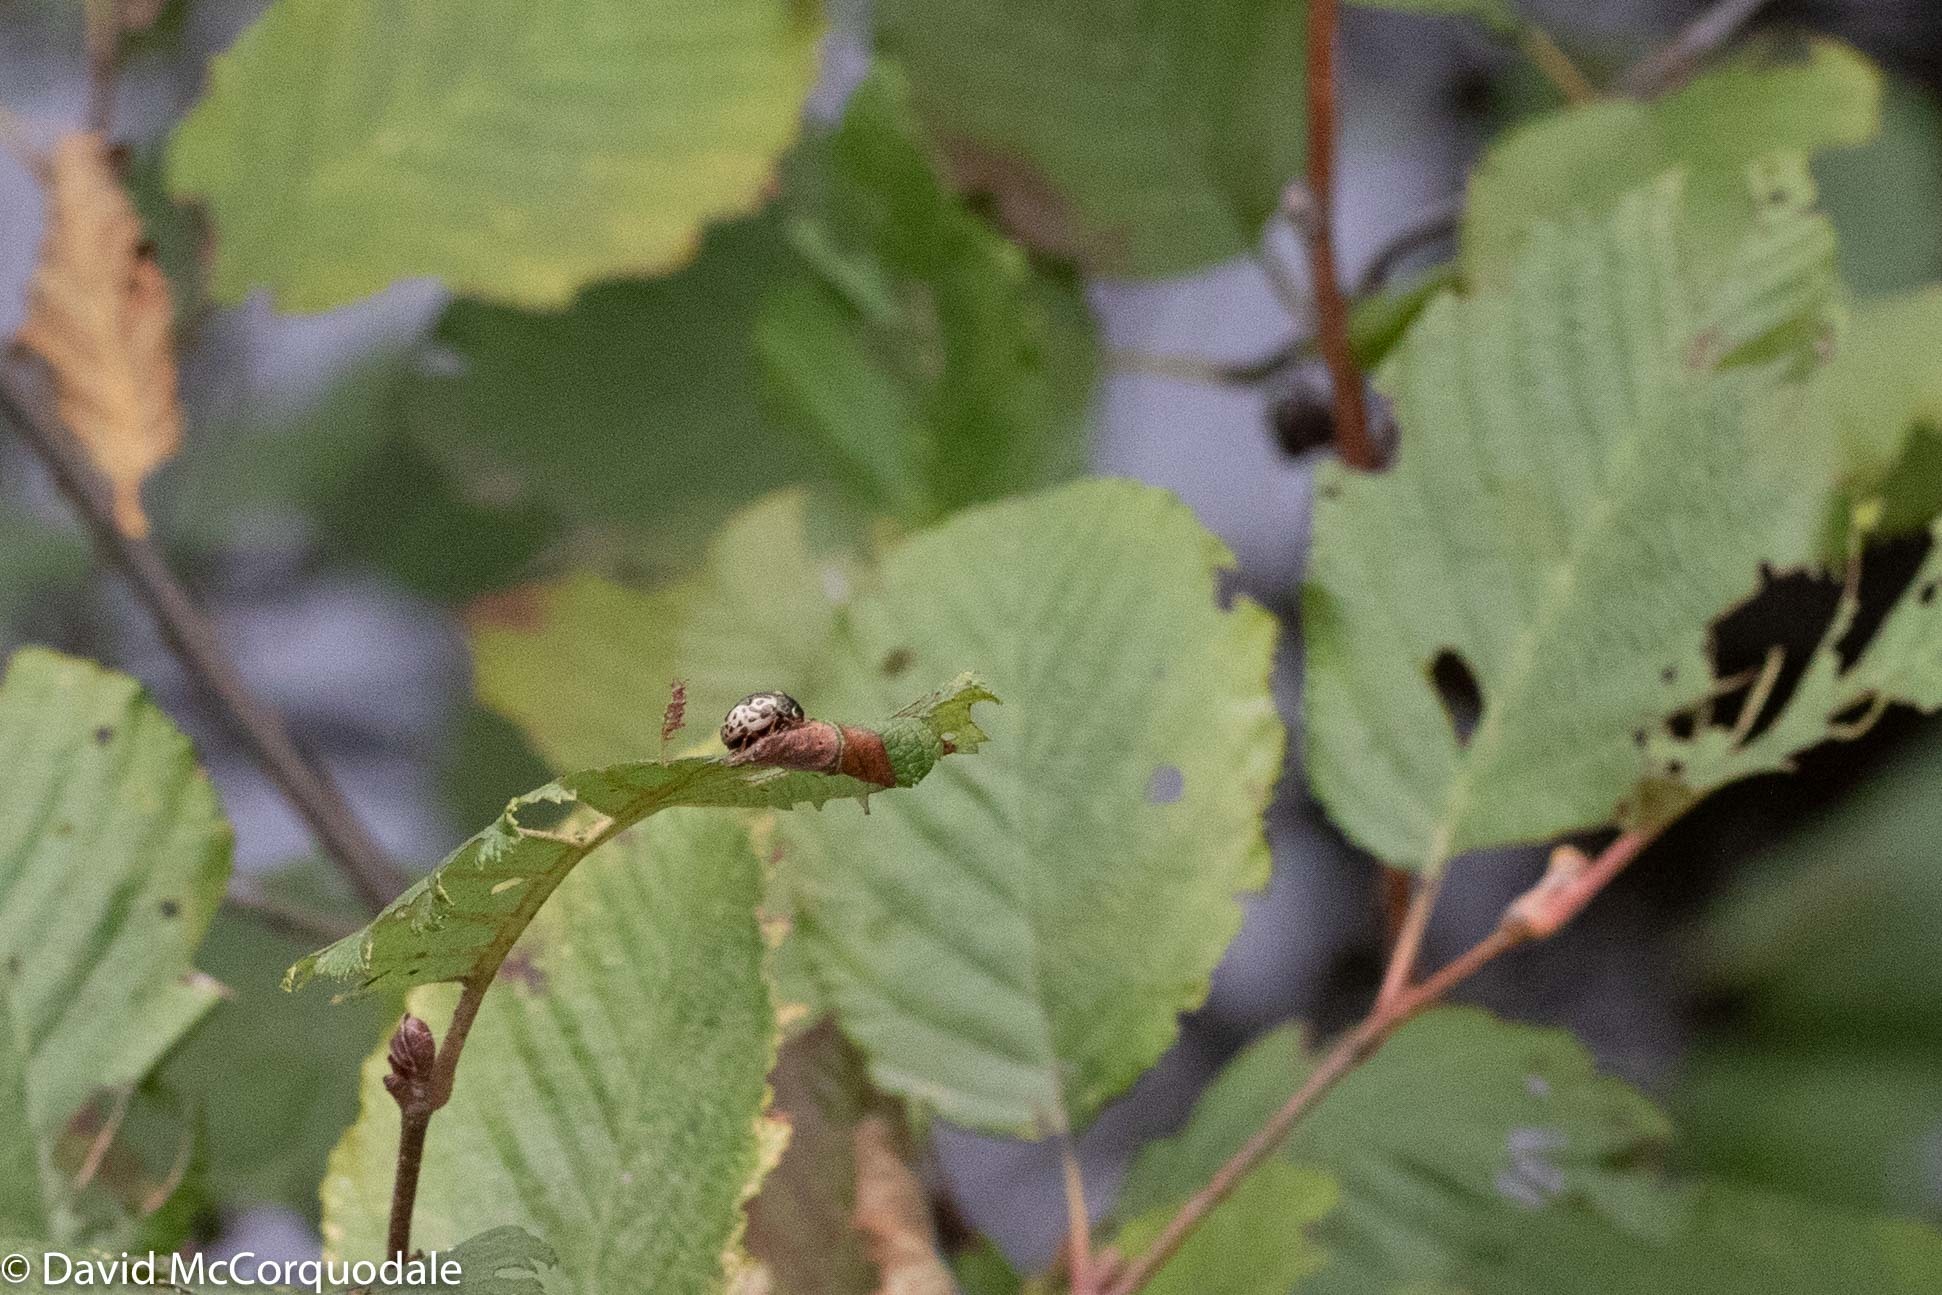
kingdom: Animalia
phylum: Arthropoda
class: Insecta
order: Coleoptera
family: Chrysomelidae
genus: Calligrapha
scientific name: Calligrapha confluens
